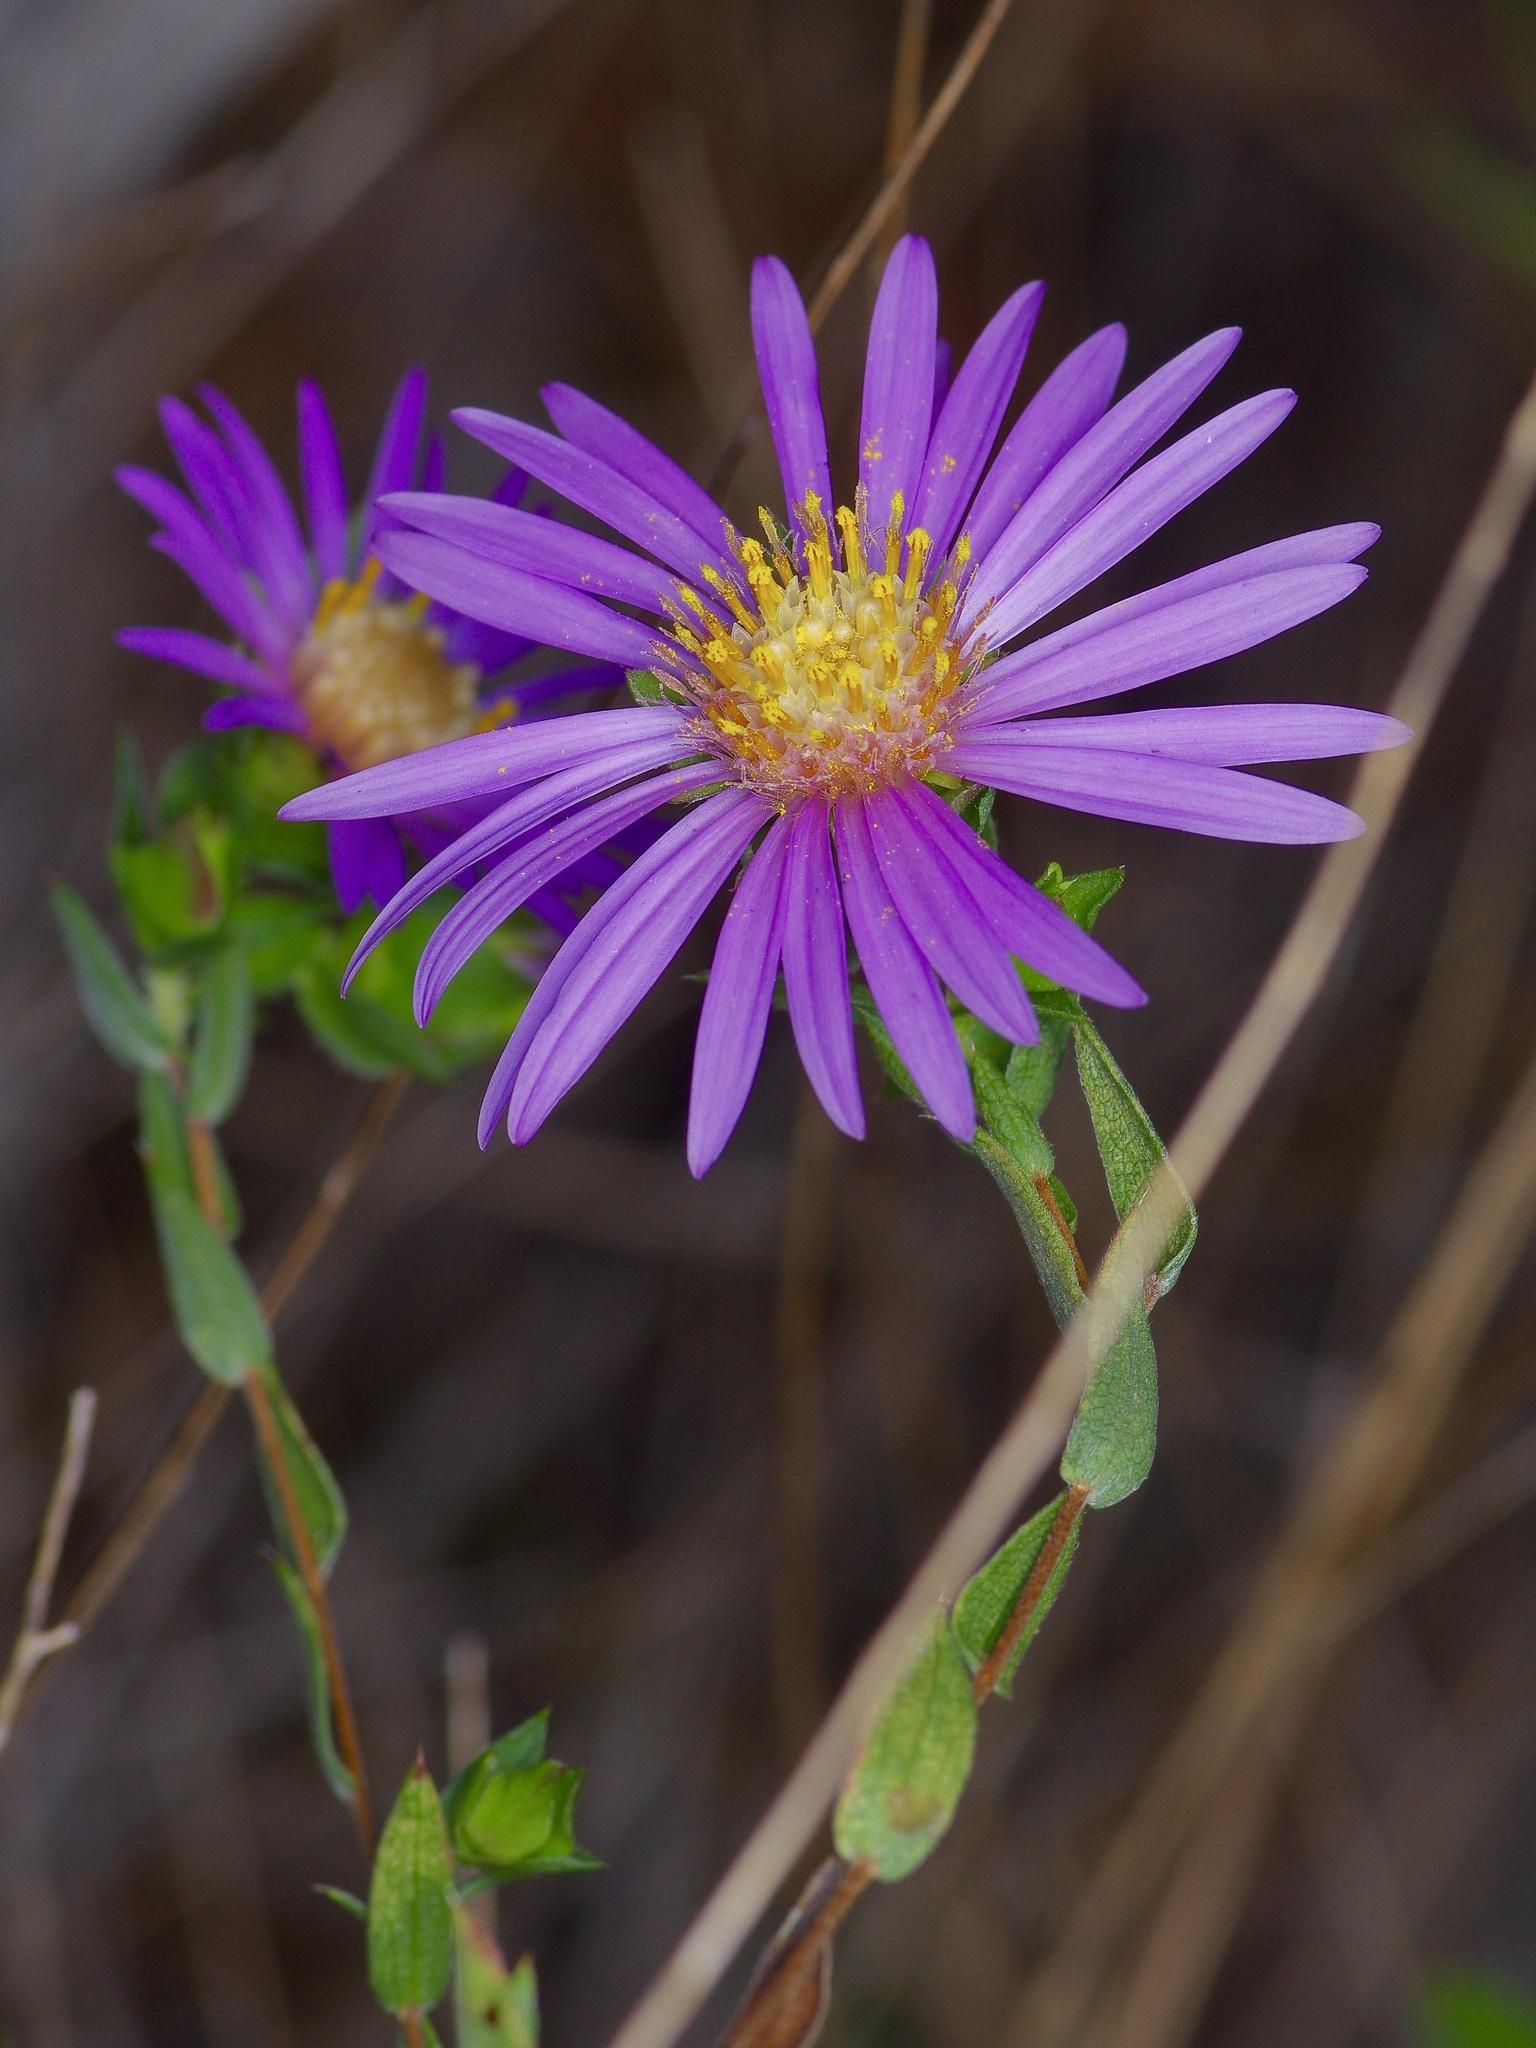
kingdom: Plantae
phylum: Tracheophyta
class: Magnoliopsida
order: Asterales
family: Asteraceae
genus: Symphyotrichum
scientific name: Symphyotrichum pratense
